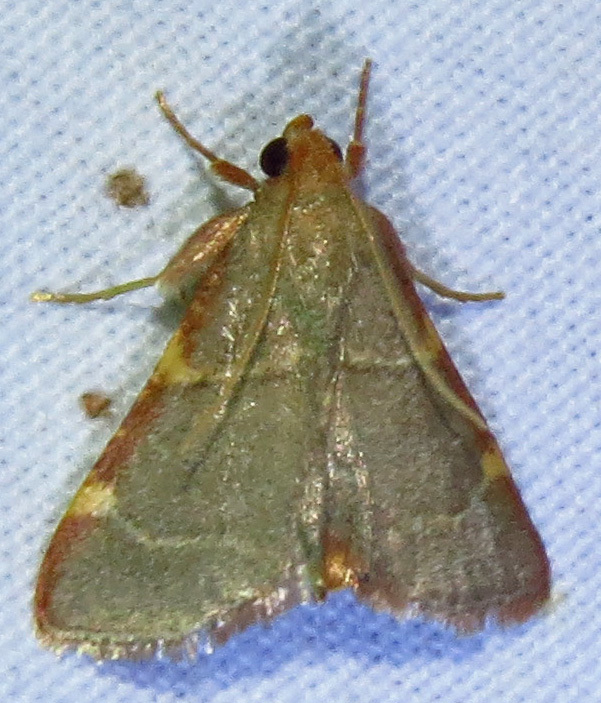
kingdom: Animalia
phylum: Arthropoda
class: Insecta
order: Lepidoptera
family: Pyralidae
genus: Hypsopygia
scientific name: Hypsopygia binodulalis
